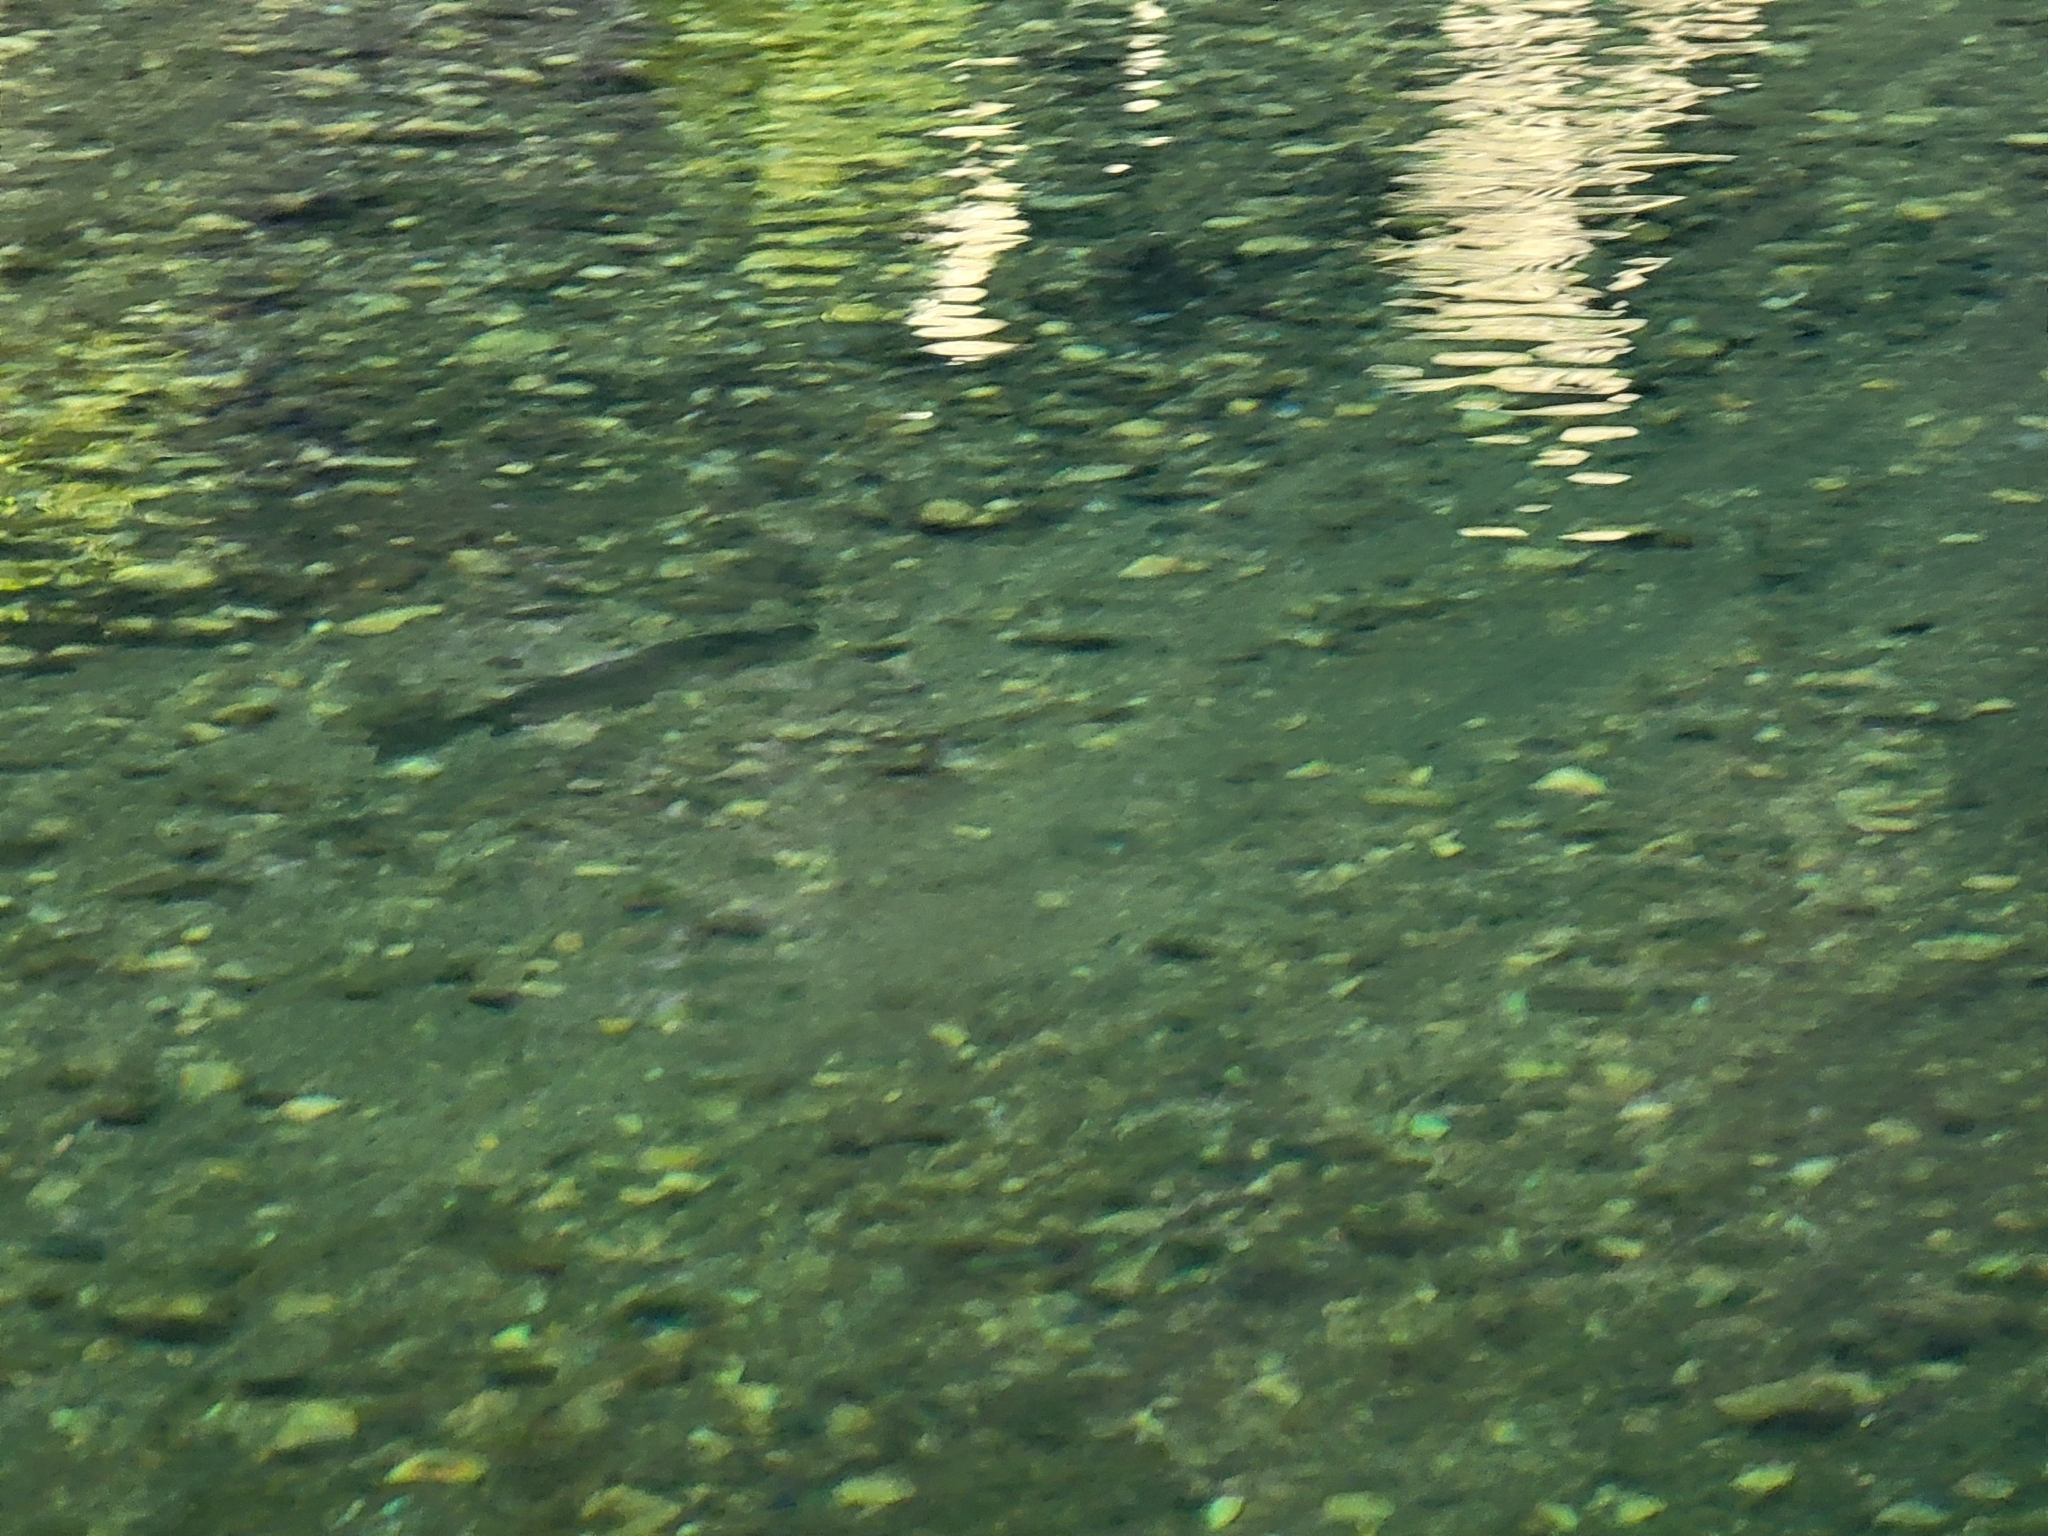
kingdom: Animalia
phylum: Chordata
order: Salmoniformes
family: Salmonidae
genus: Oncorhynchus
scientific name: Oncorhynchus mykiss
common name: Rainbow trout
